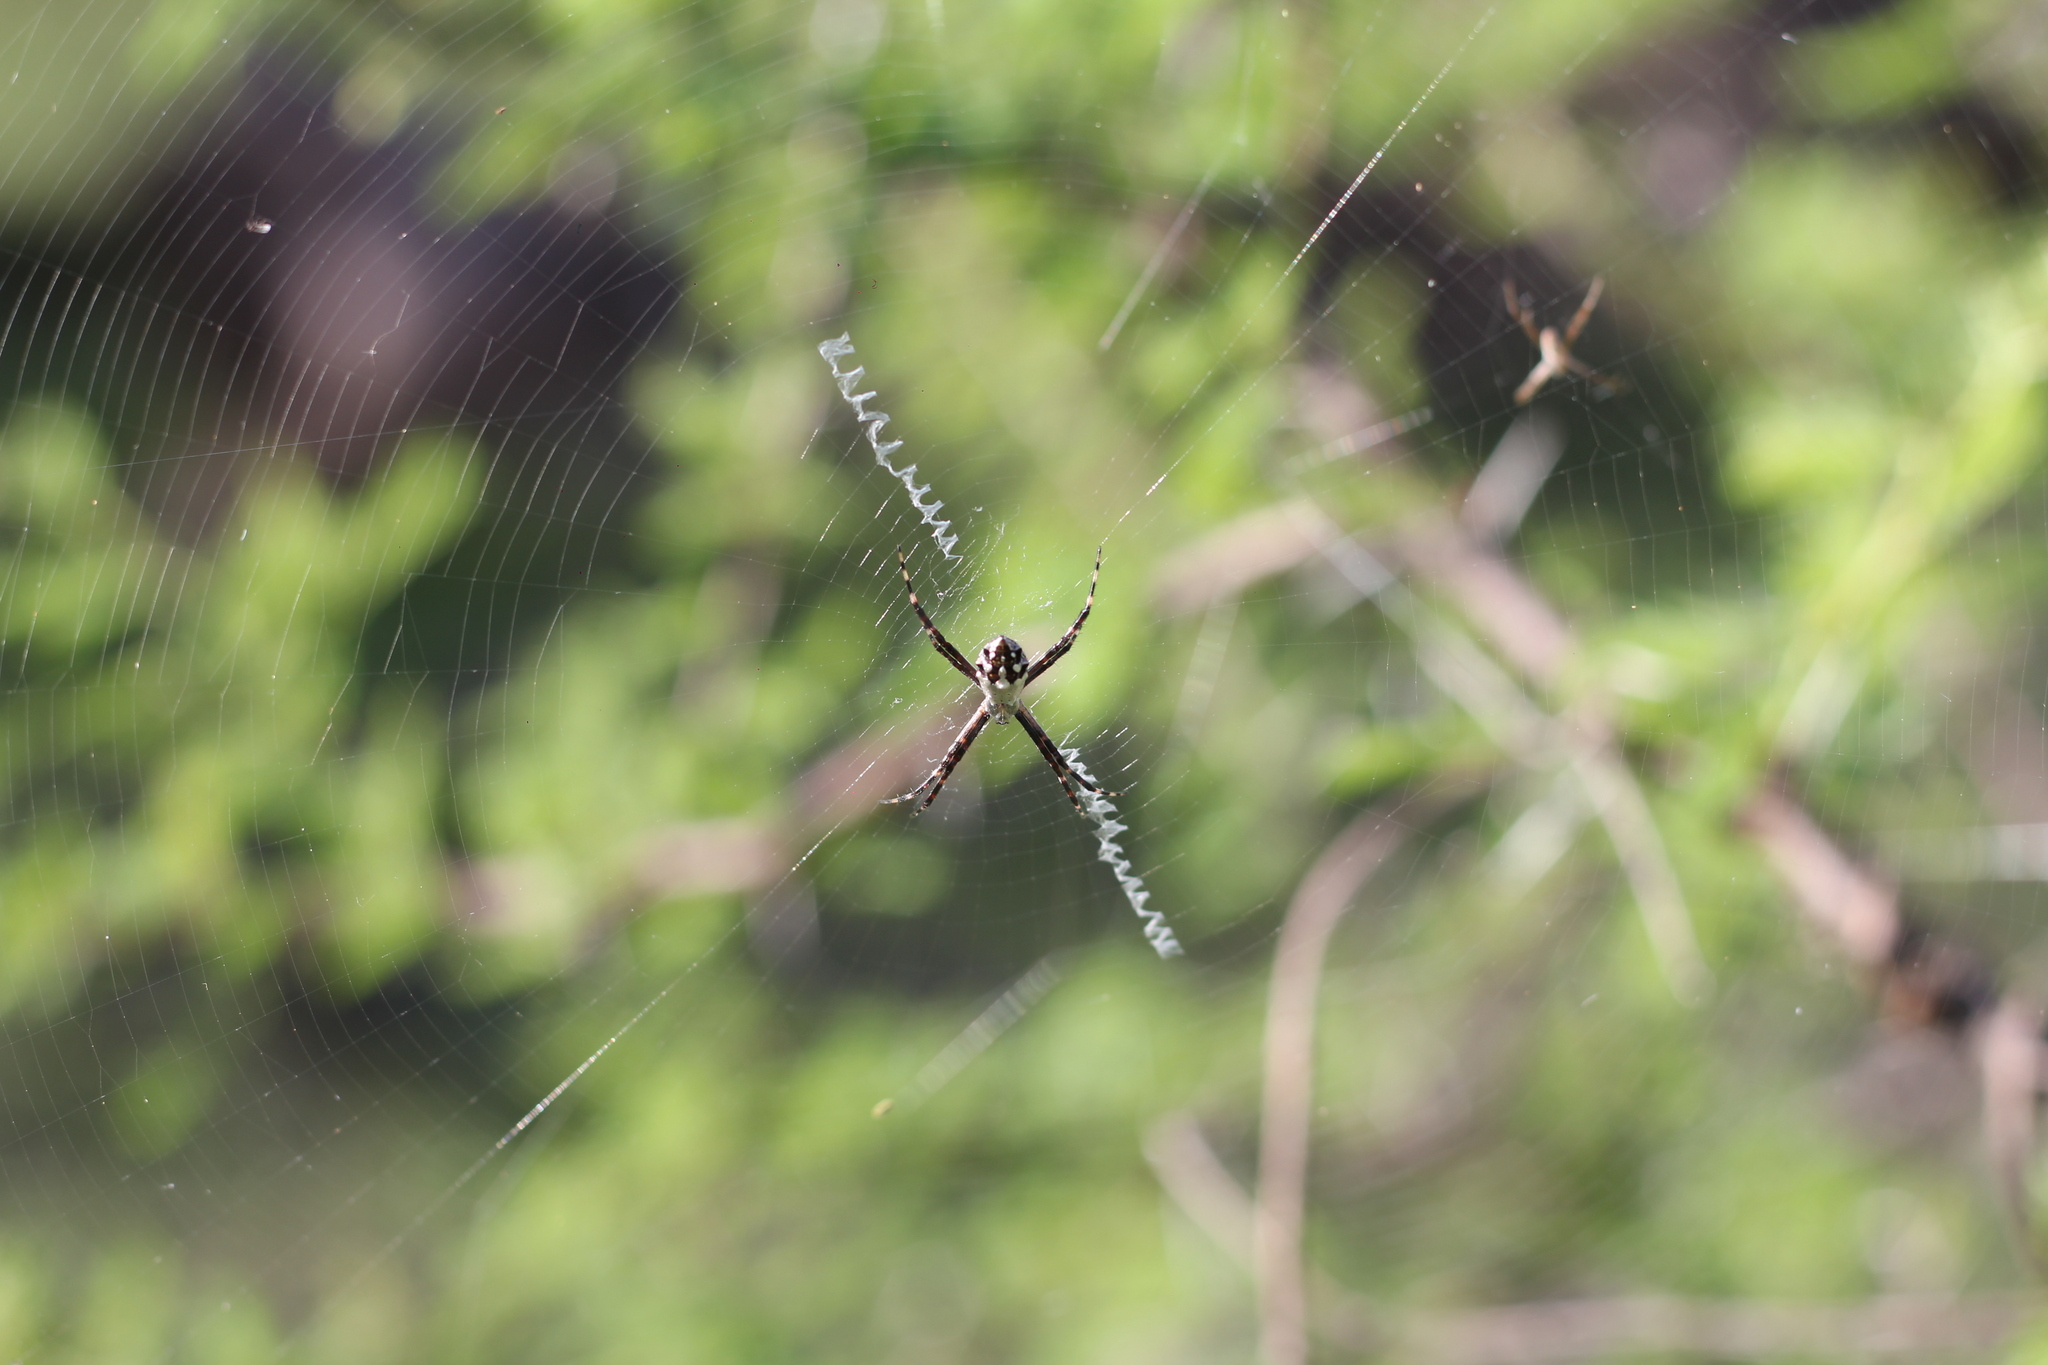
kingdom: Animalia
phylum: Arthropoda
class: Arachnida
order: Araneae
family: Araneidae
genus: Argiope
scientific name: Argiope argentata
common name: Orb weavers
